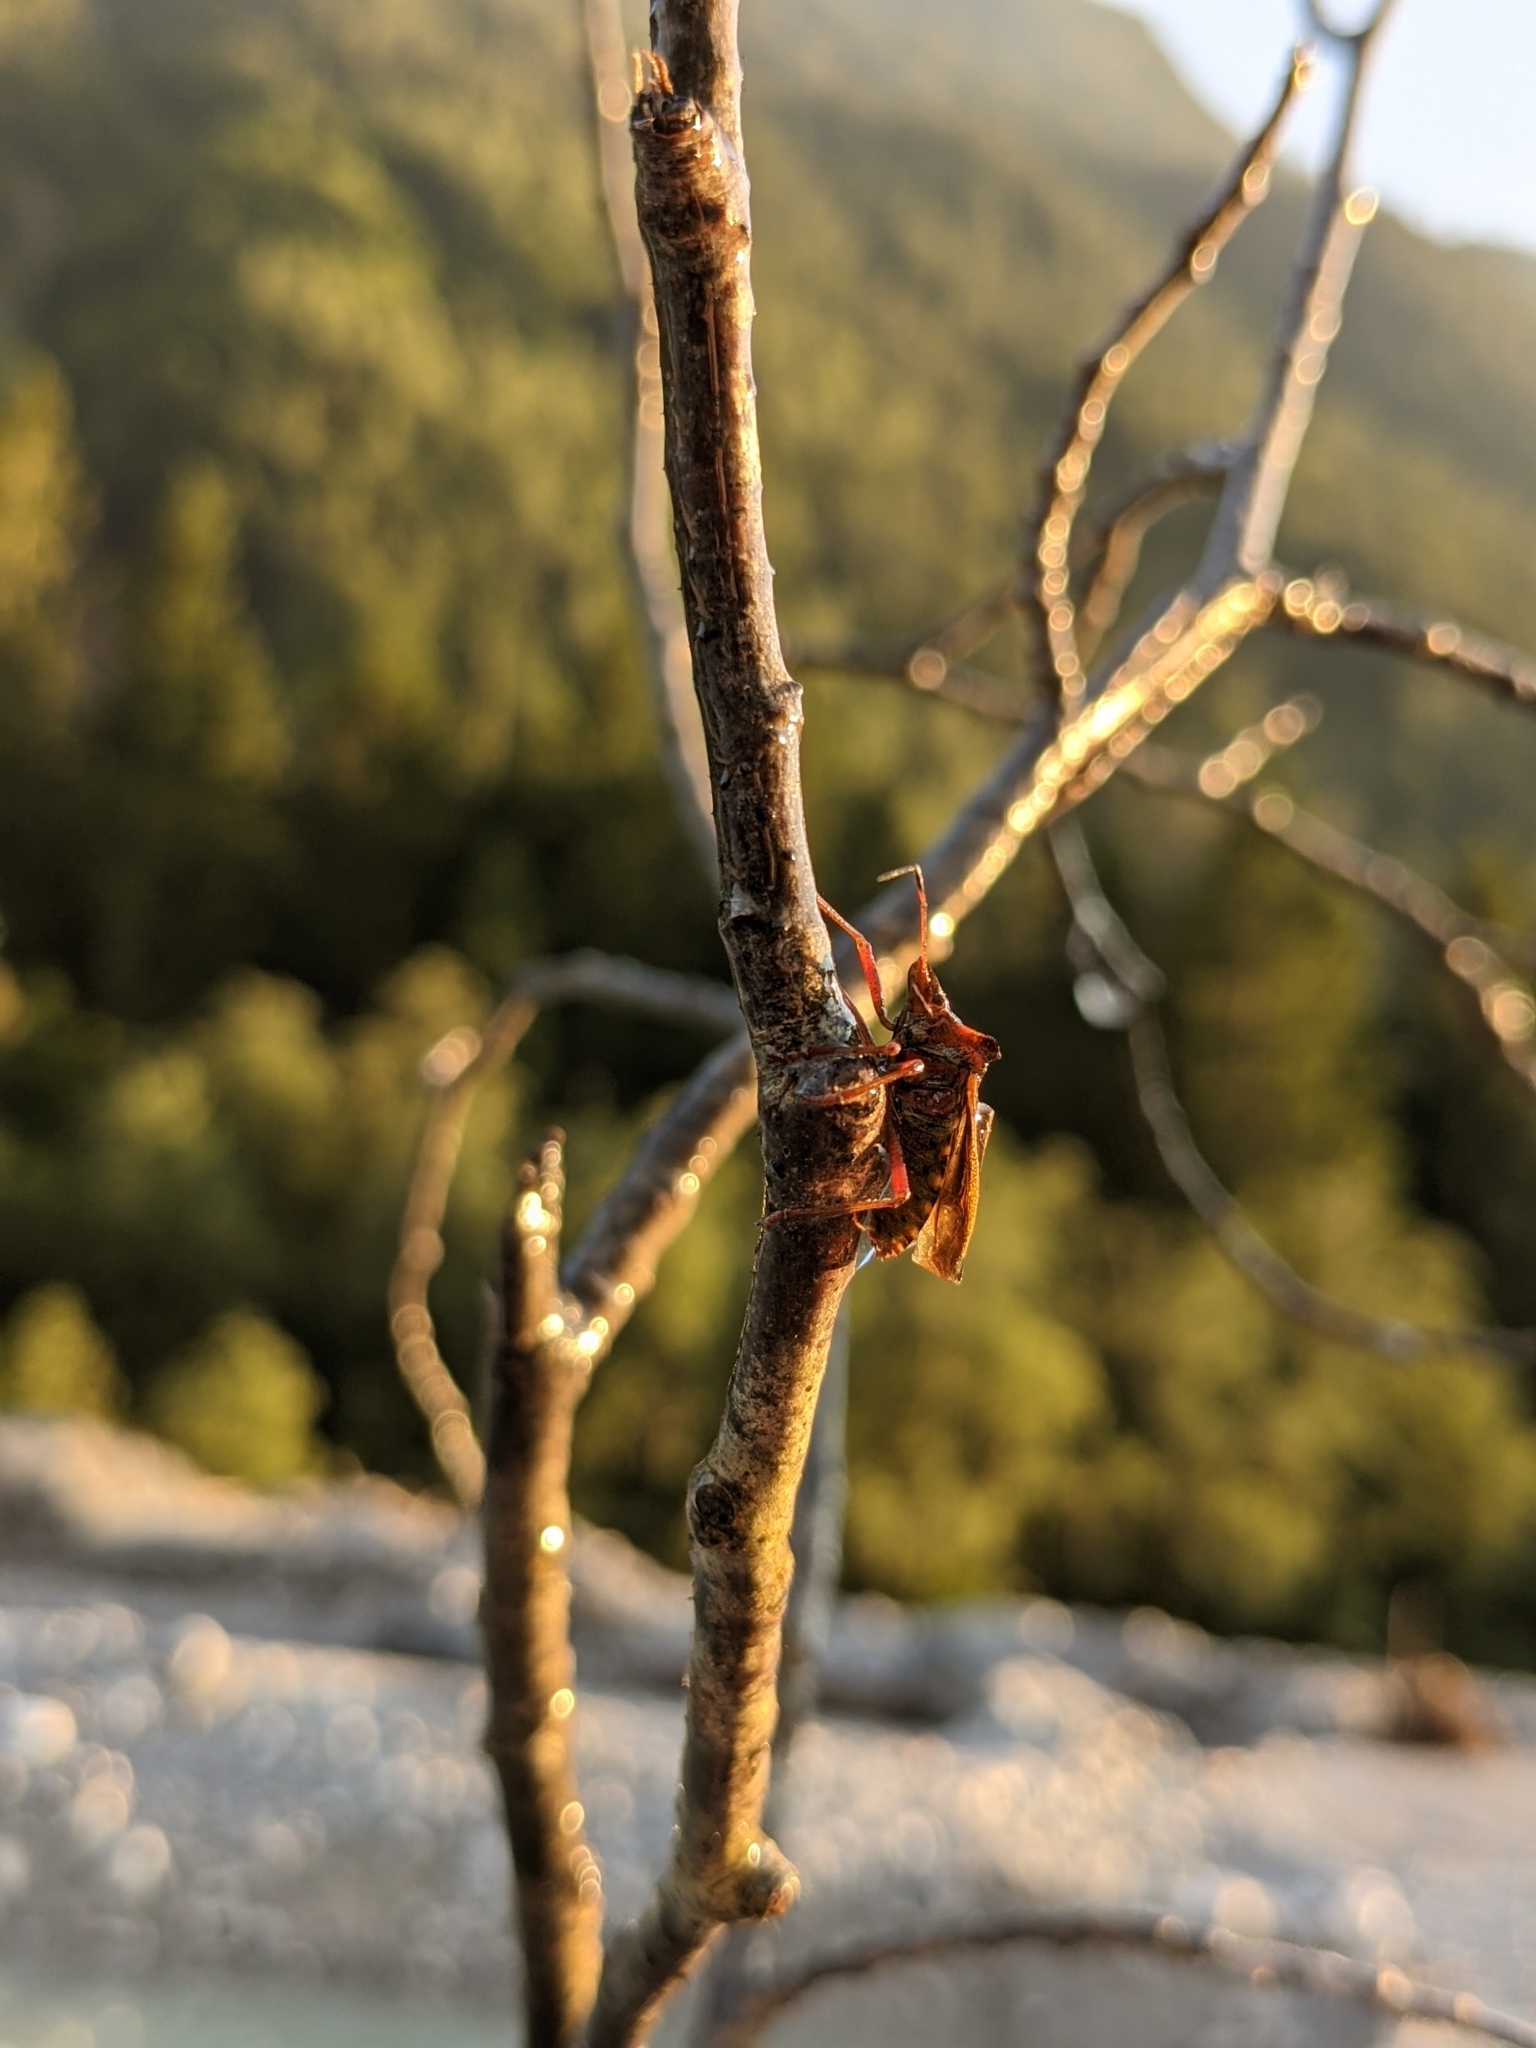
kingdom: Animalia
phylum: Arthropoda
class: Insecta
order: Hemiptera
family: Pentatomidae
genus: Pentatoma
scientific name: Pentatoma rufipes
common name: Forest bug
